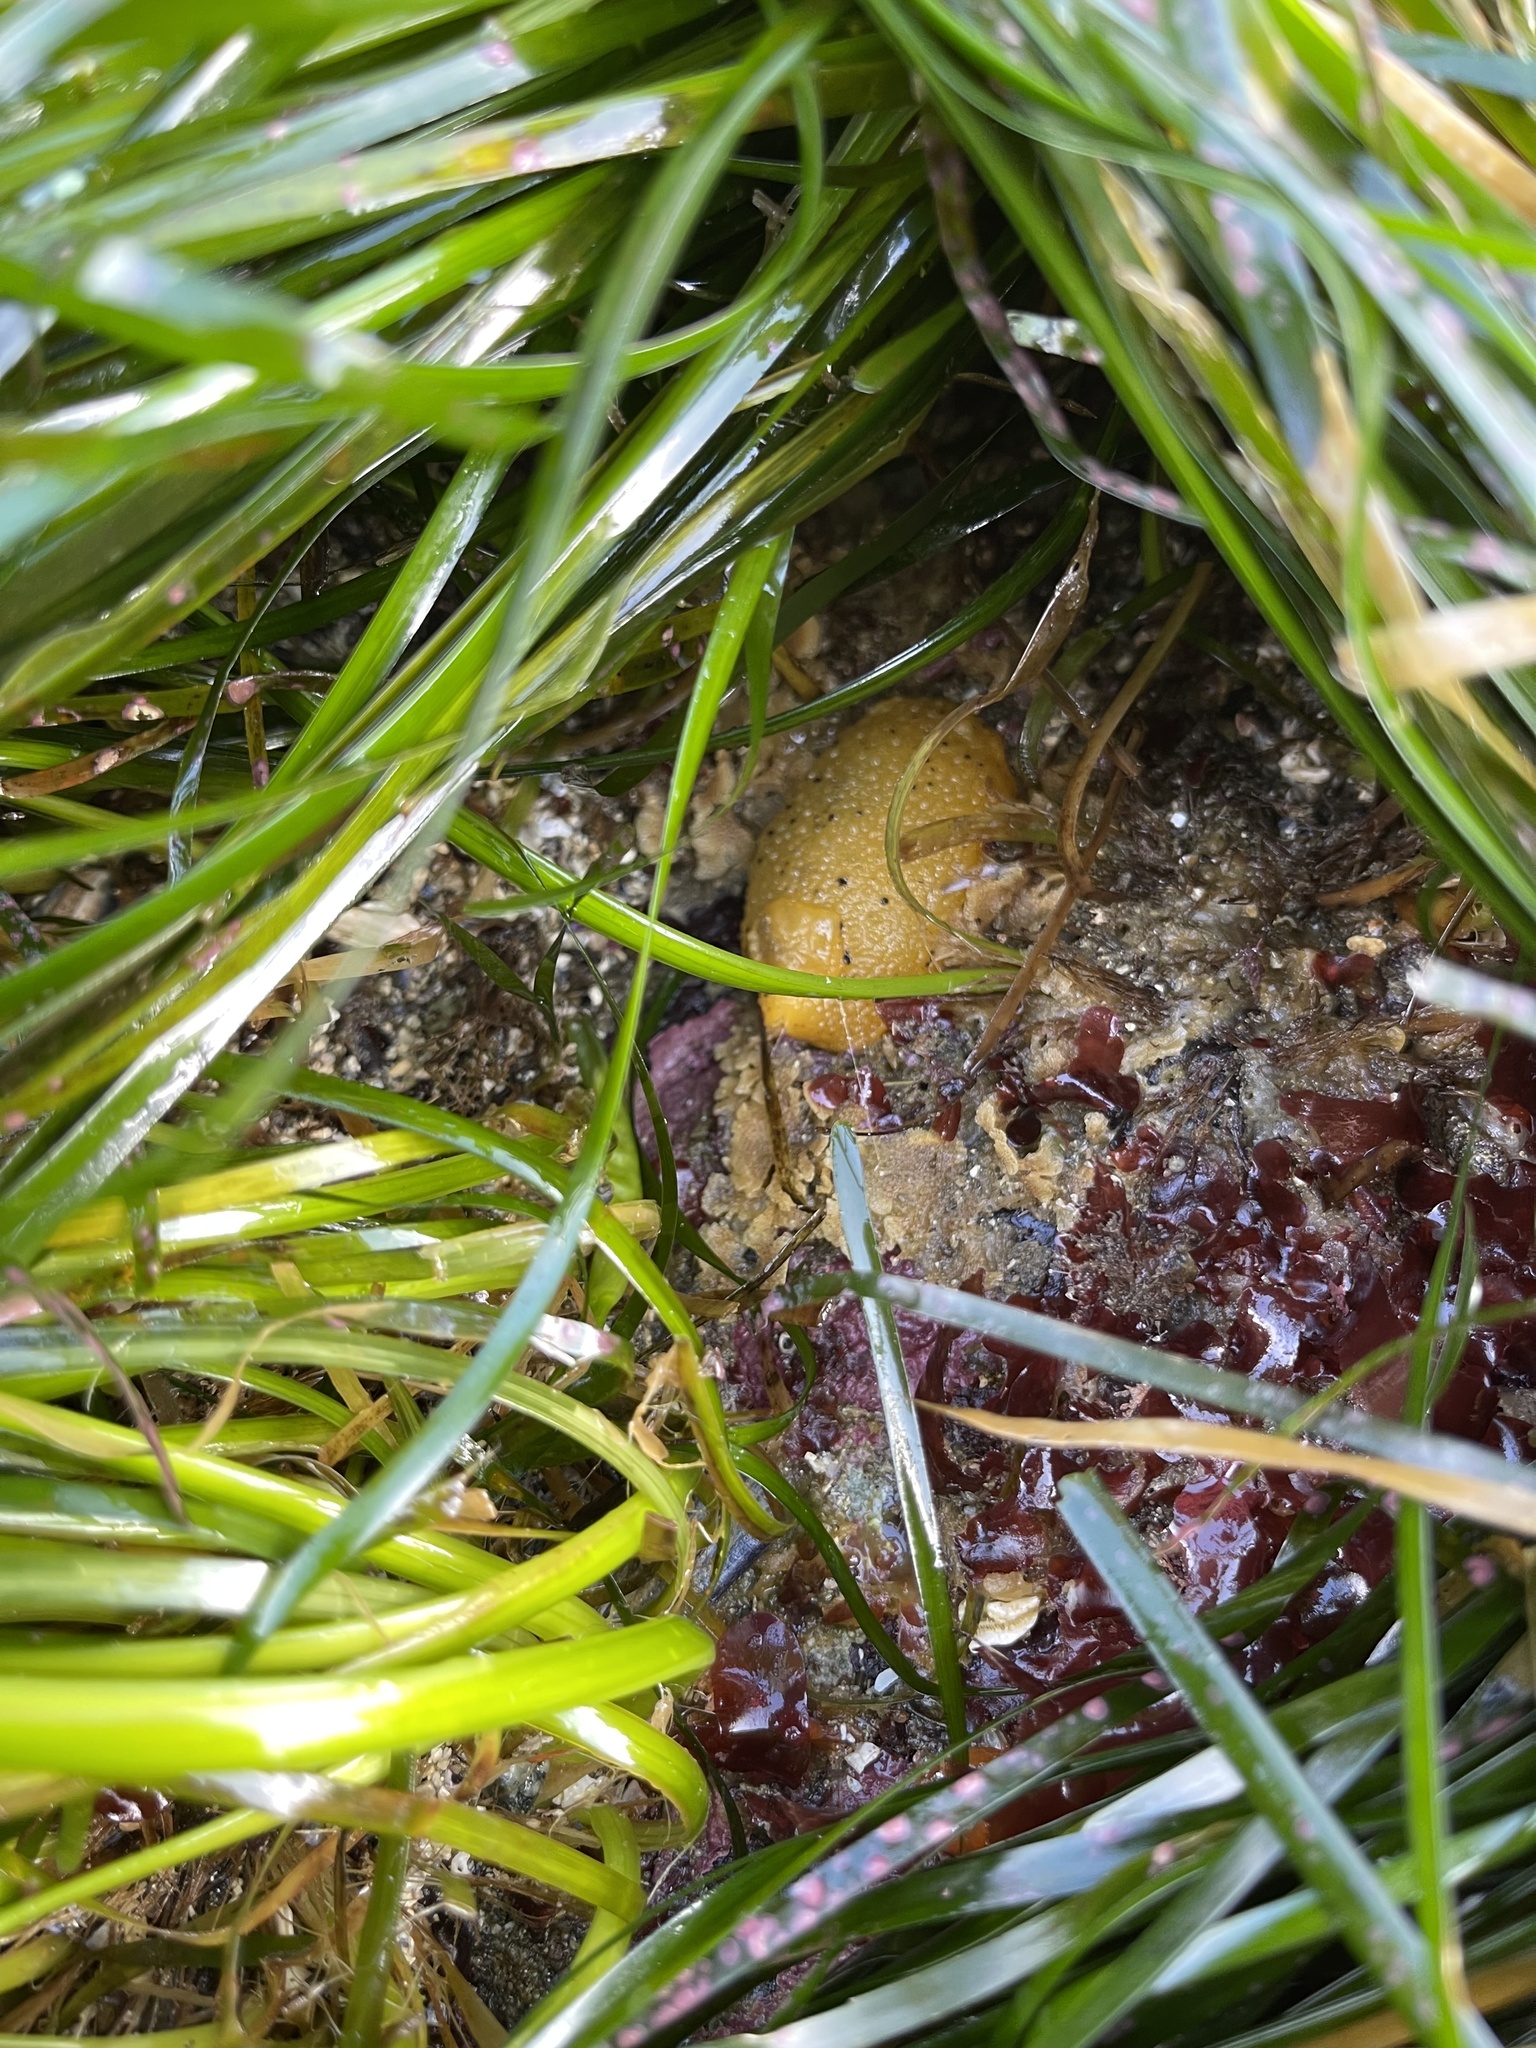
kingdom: Animalia
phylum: Mollusca
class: Gastropoda
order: Nudibranchia
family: Dorididae
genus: Doris
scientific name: Doris montereyensis
